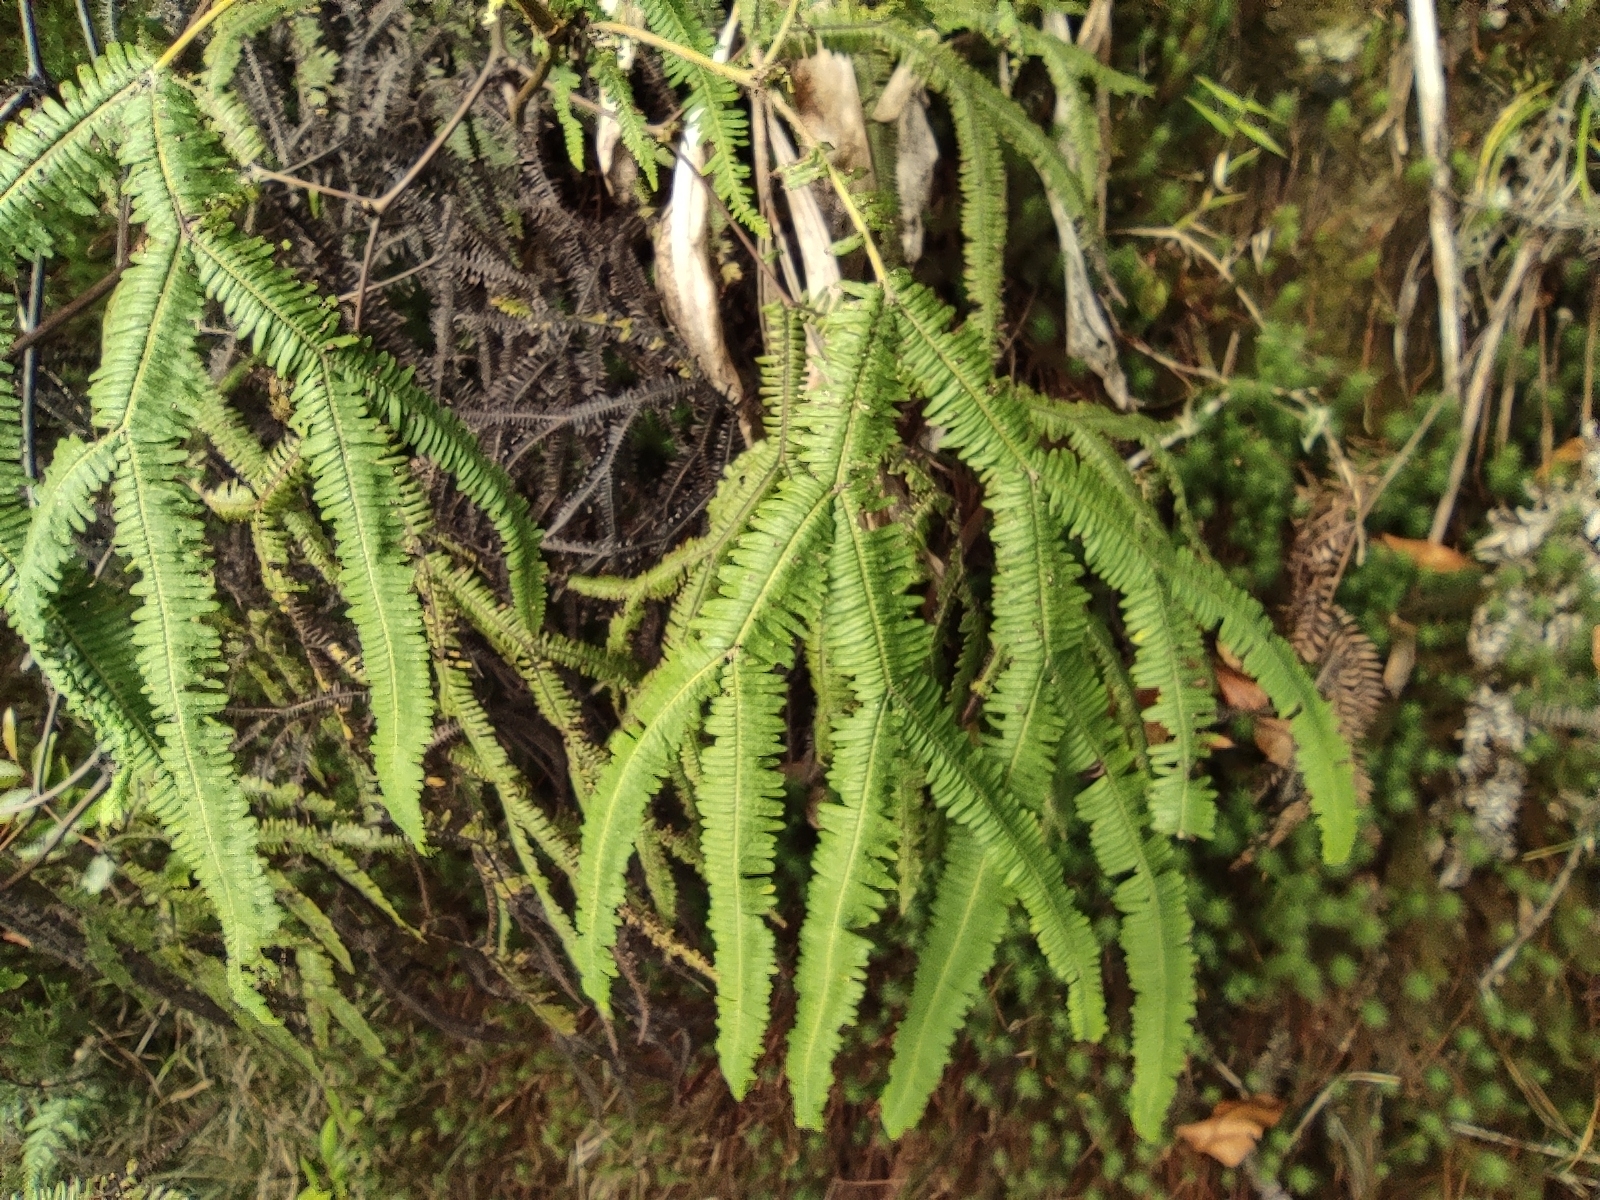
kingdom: Plantae
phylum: Tracheophyta
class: Polypodiopsida
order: Gleicheniales
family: Gleicheniaceae
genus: Sticherus
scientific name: Sticherus flagellaris
